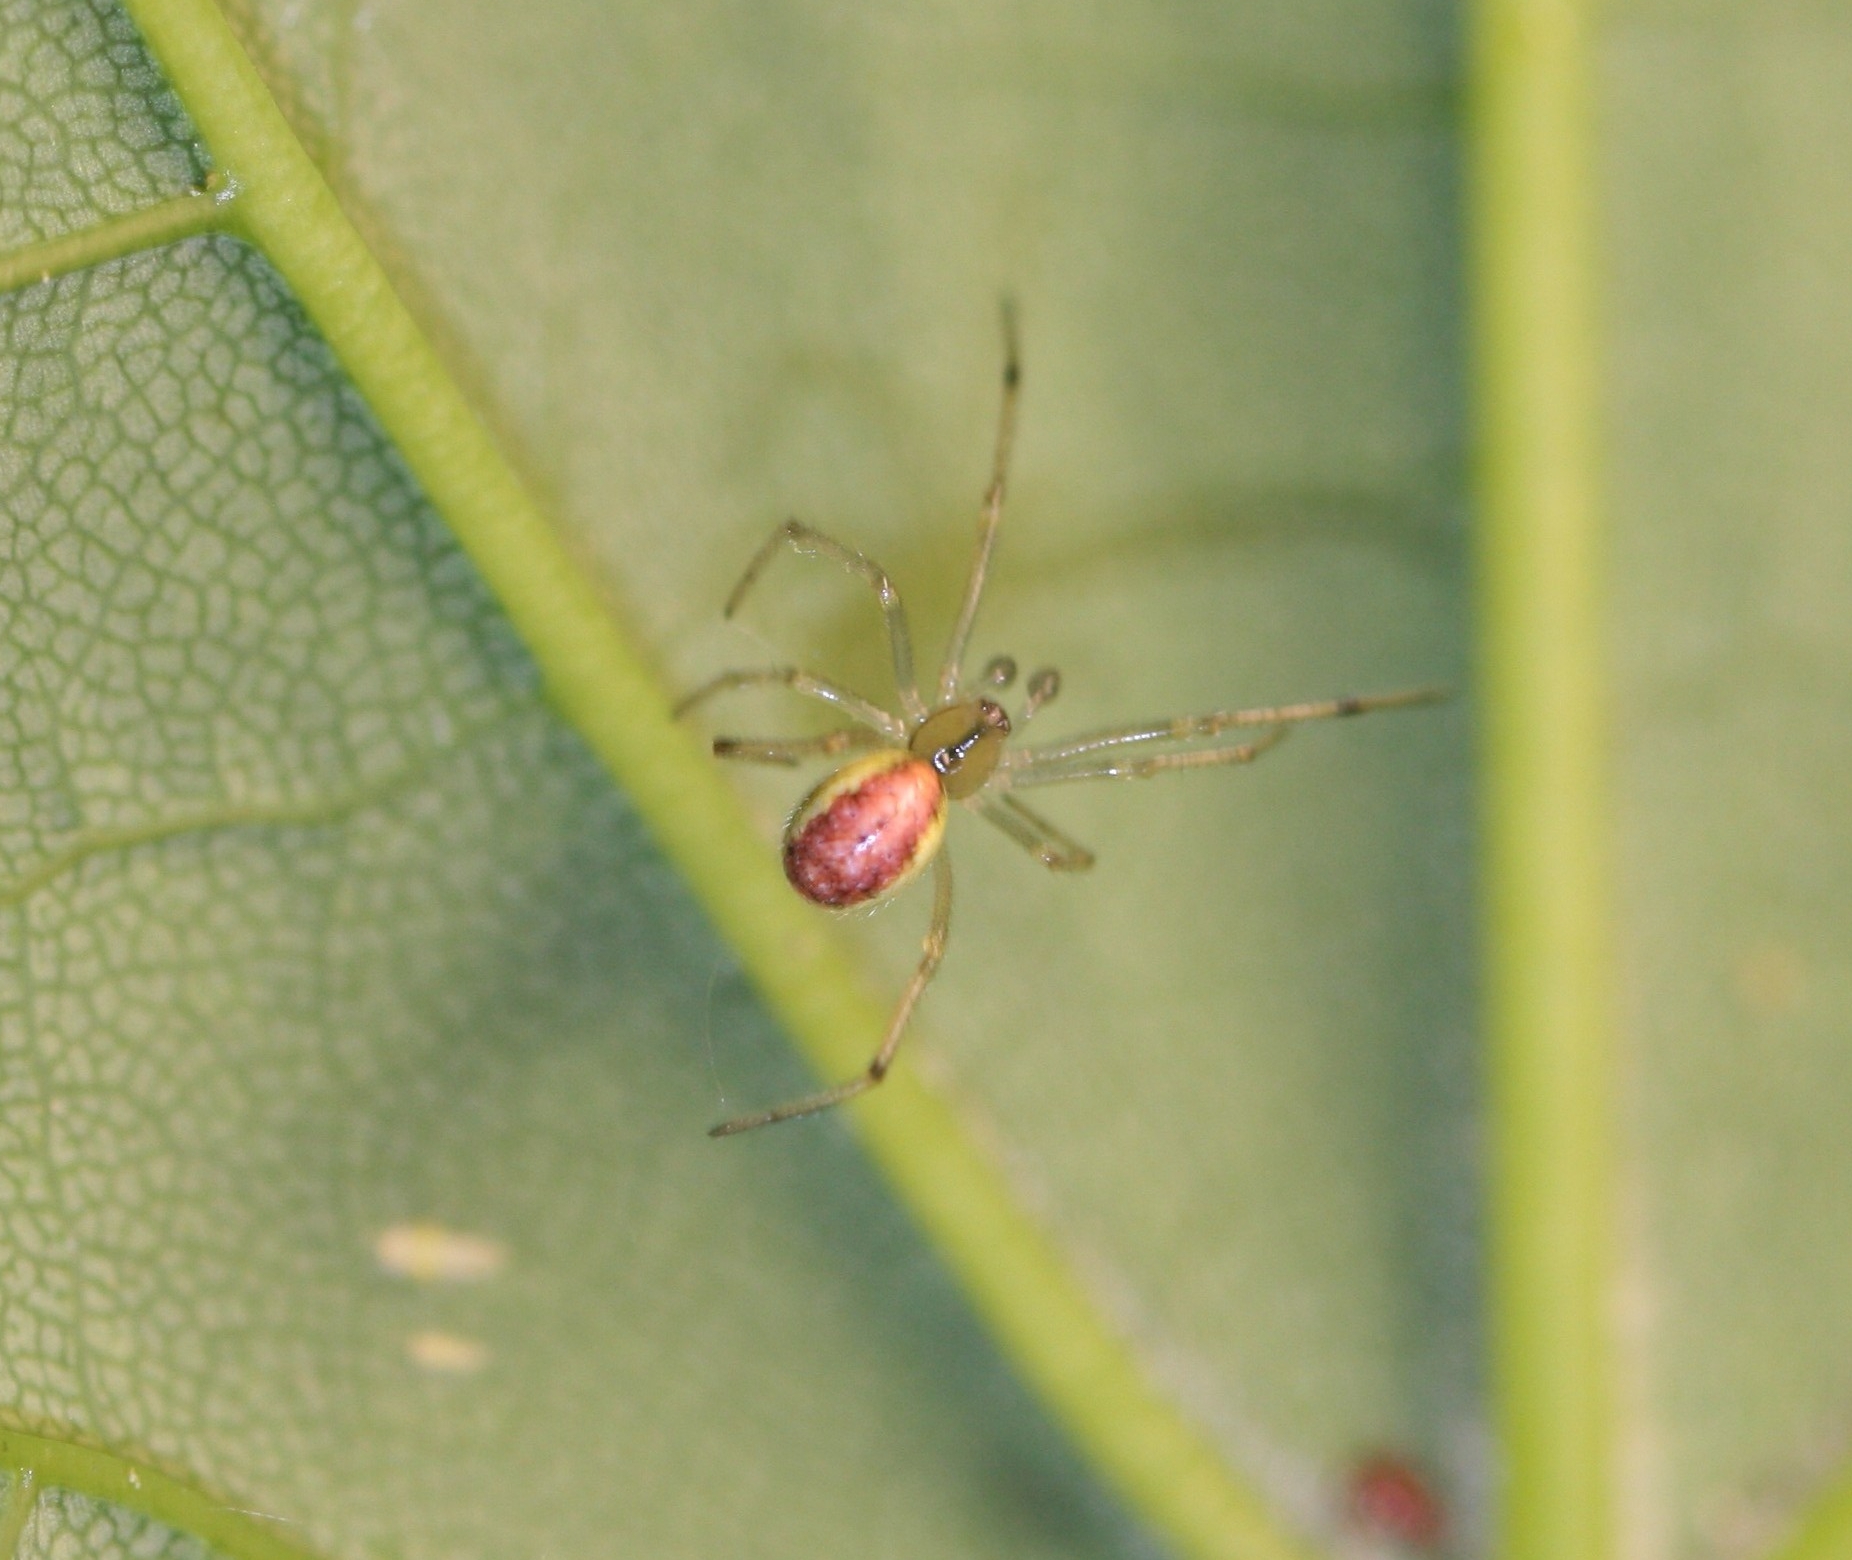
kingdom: Animalia
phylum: Arthropoda
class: Arachnida
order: Araneae
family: Theridiidae
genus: Enoplognatha
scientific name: Enoplognatha ovata
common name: Common candy-striped spider
